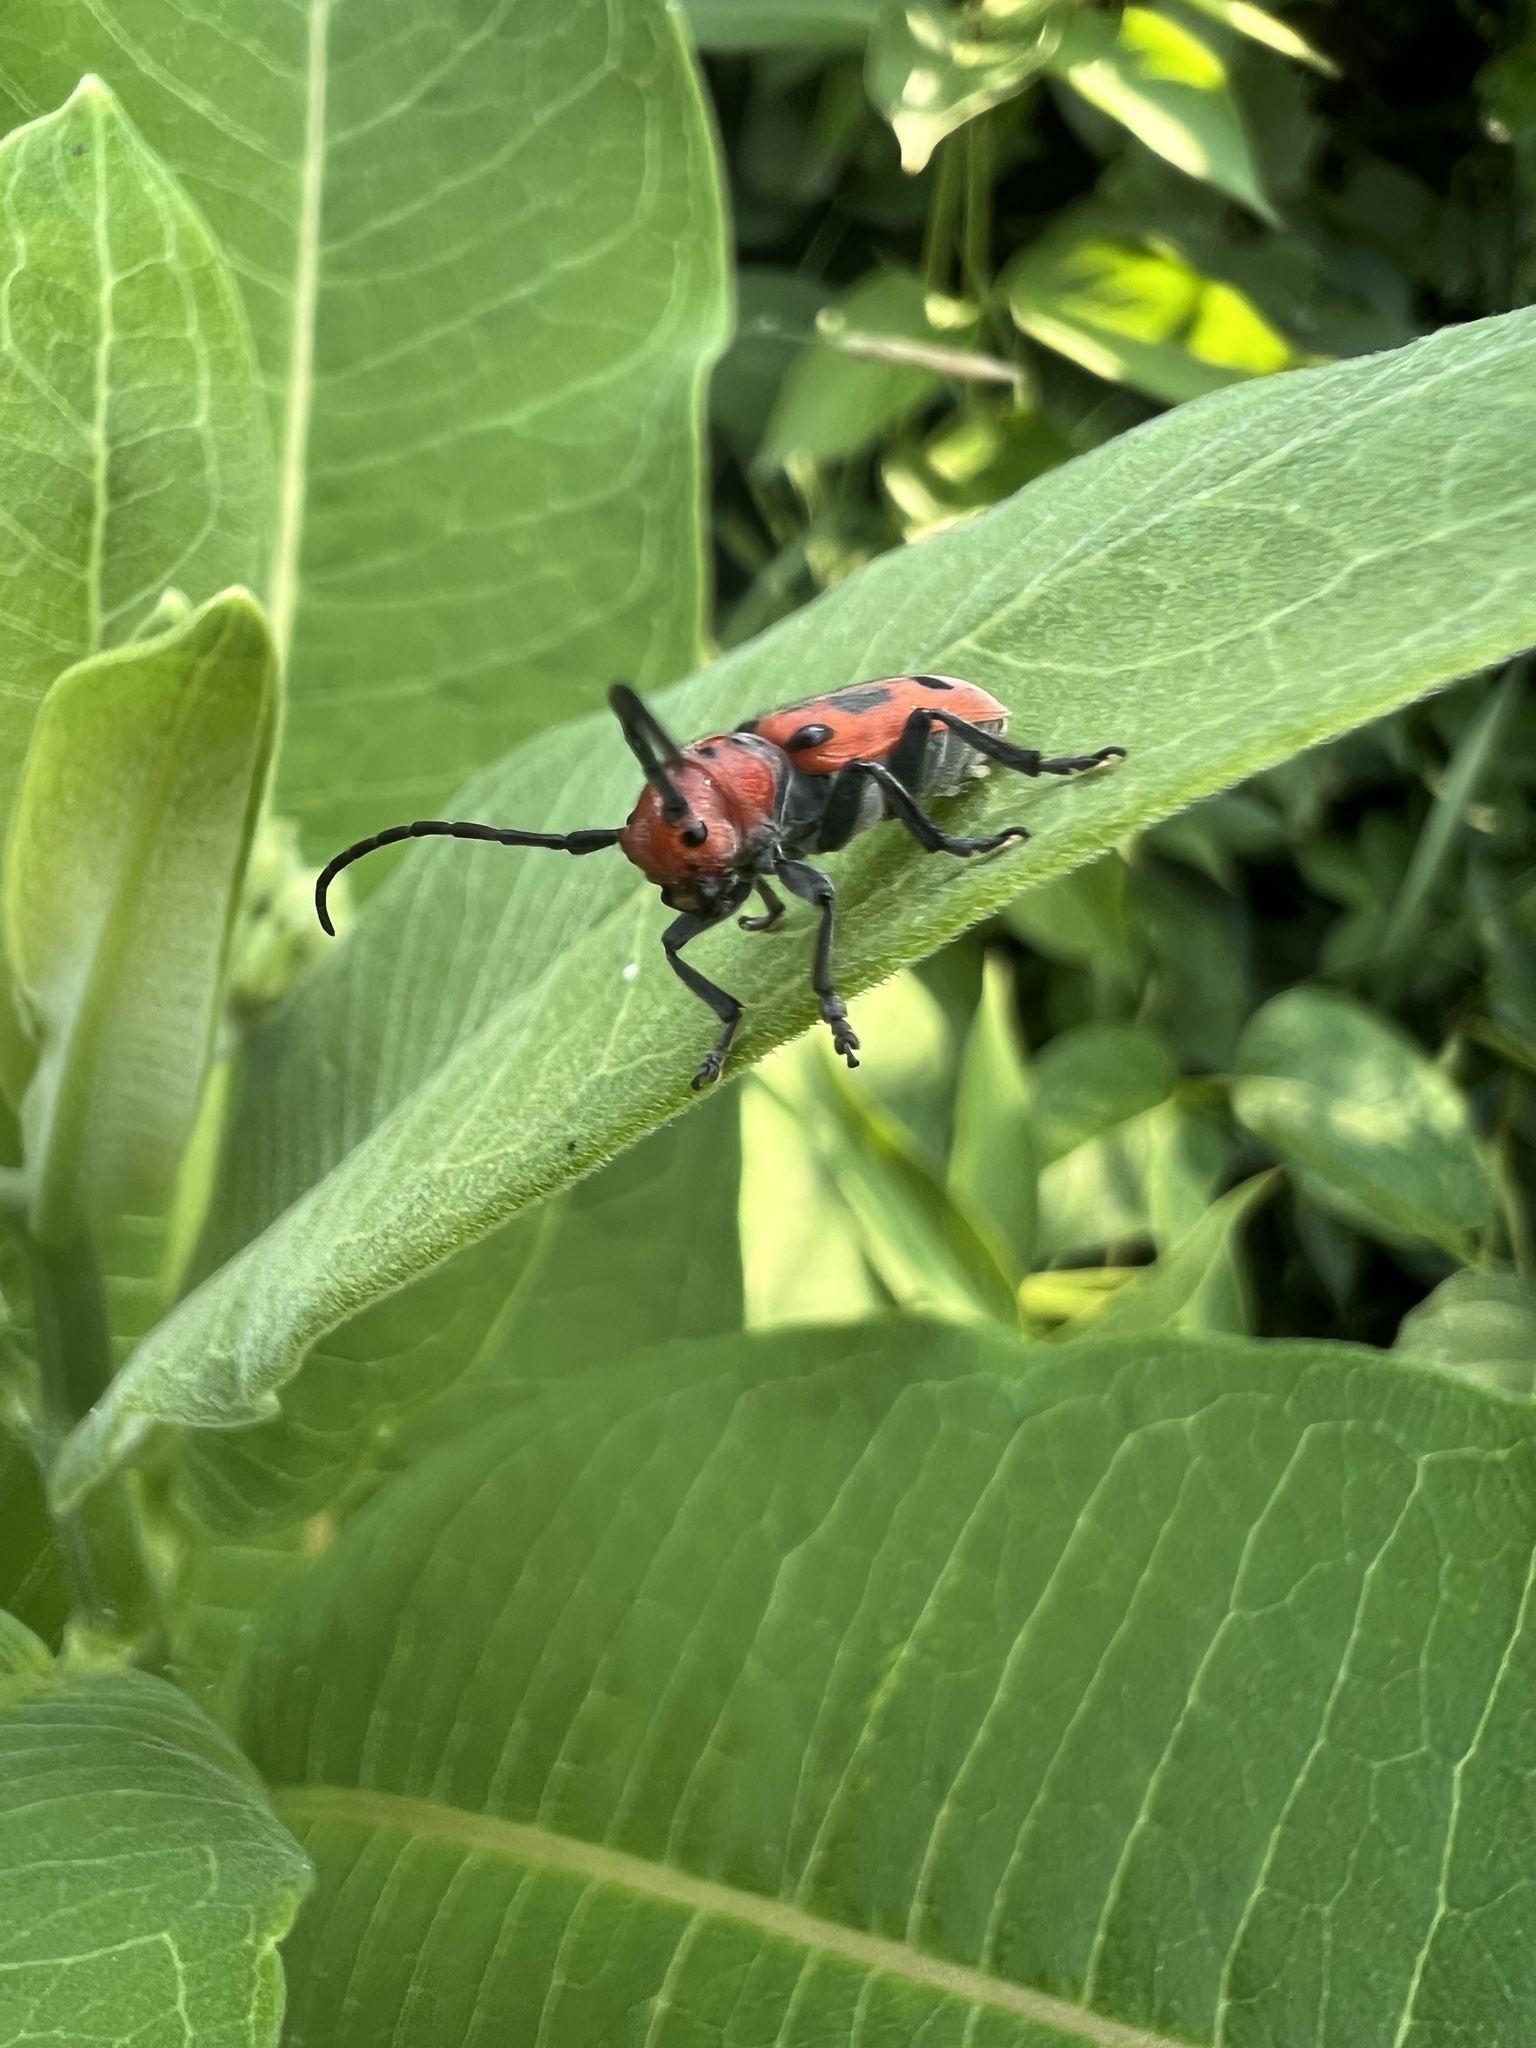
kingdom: Animalia
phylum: Arthropoda
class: Insecta
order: Coleoptera
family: Cerambycidae
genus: Tetraopes
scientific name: Tetraopes tetrophthalmus
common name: Red milkweed beetle
